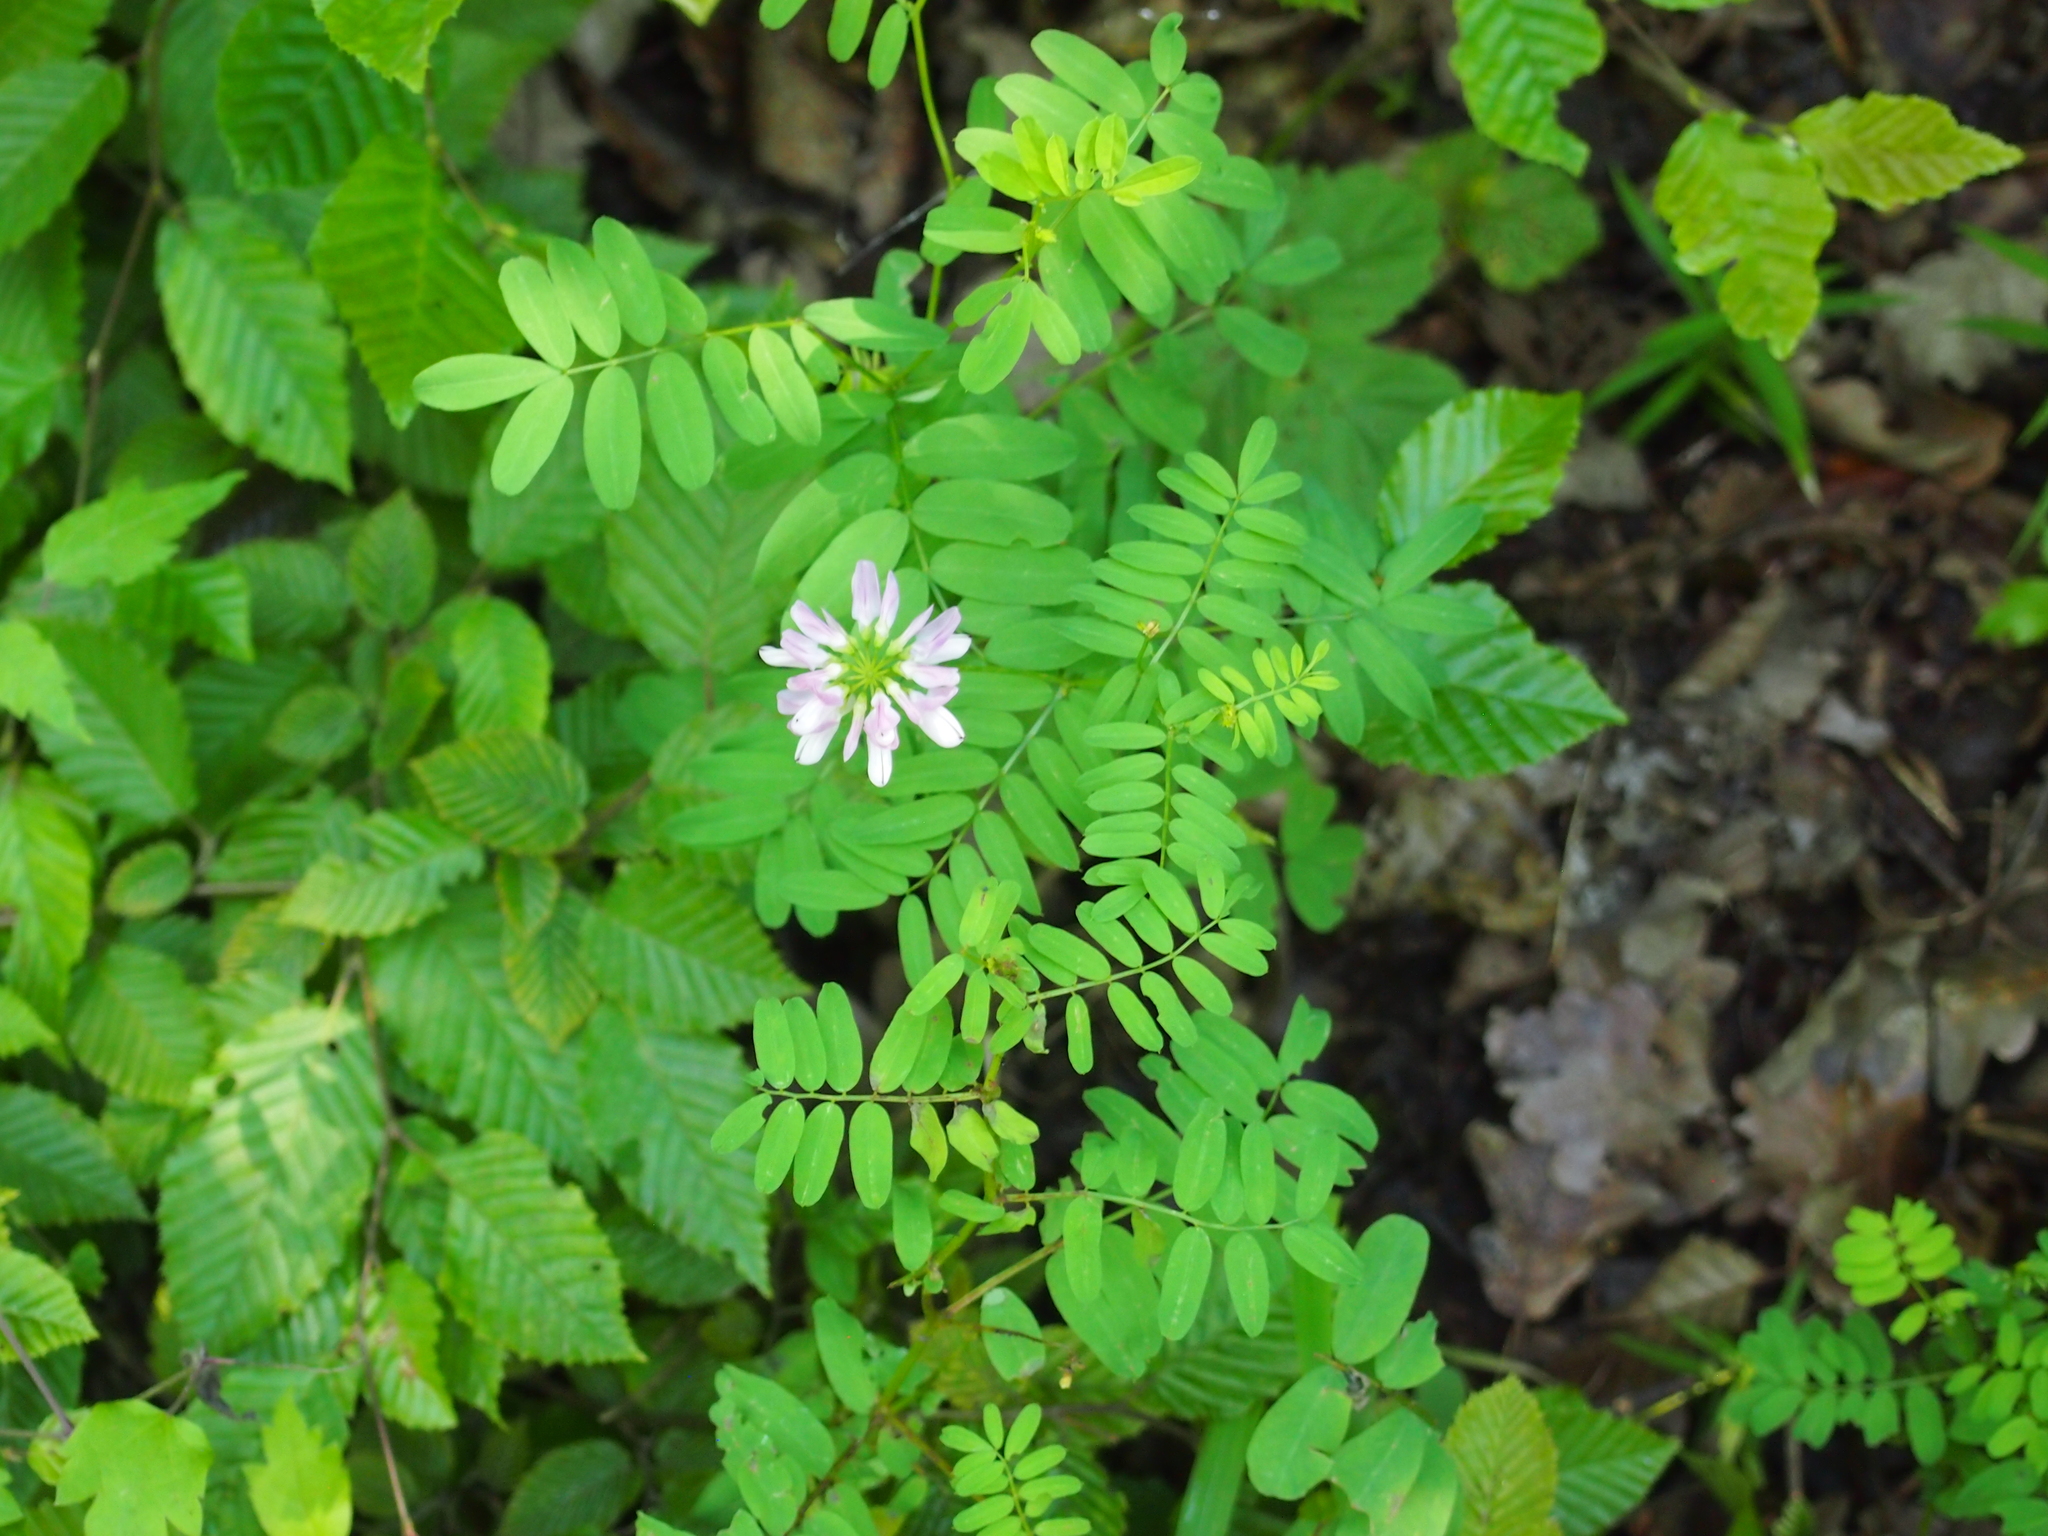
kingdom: Plantae
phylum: Tracheophyta
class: Magnoliopsida
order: Fabales
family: Fabaceae
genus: Coronilla
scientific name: Coronilla varia
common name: Crownvetch
